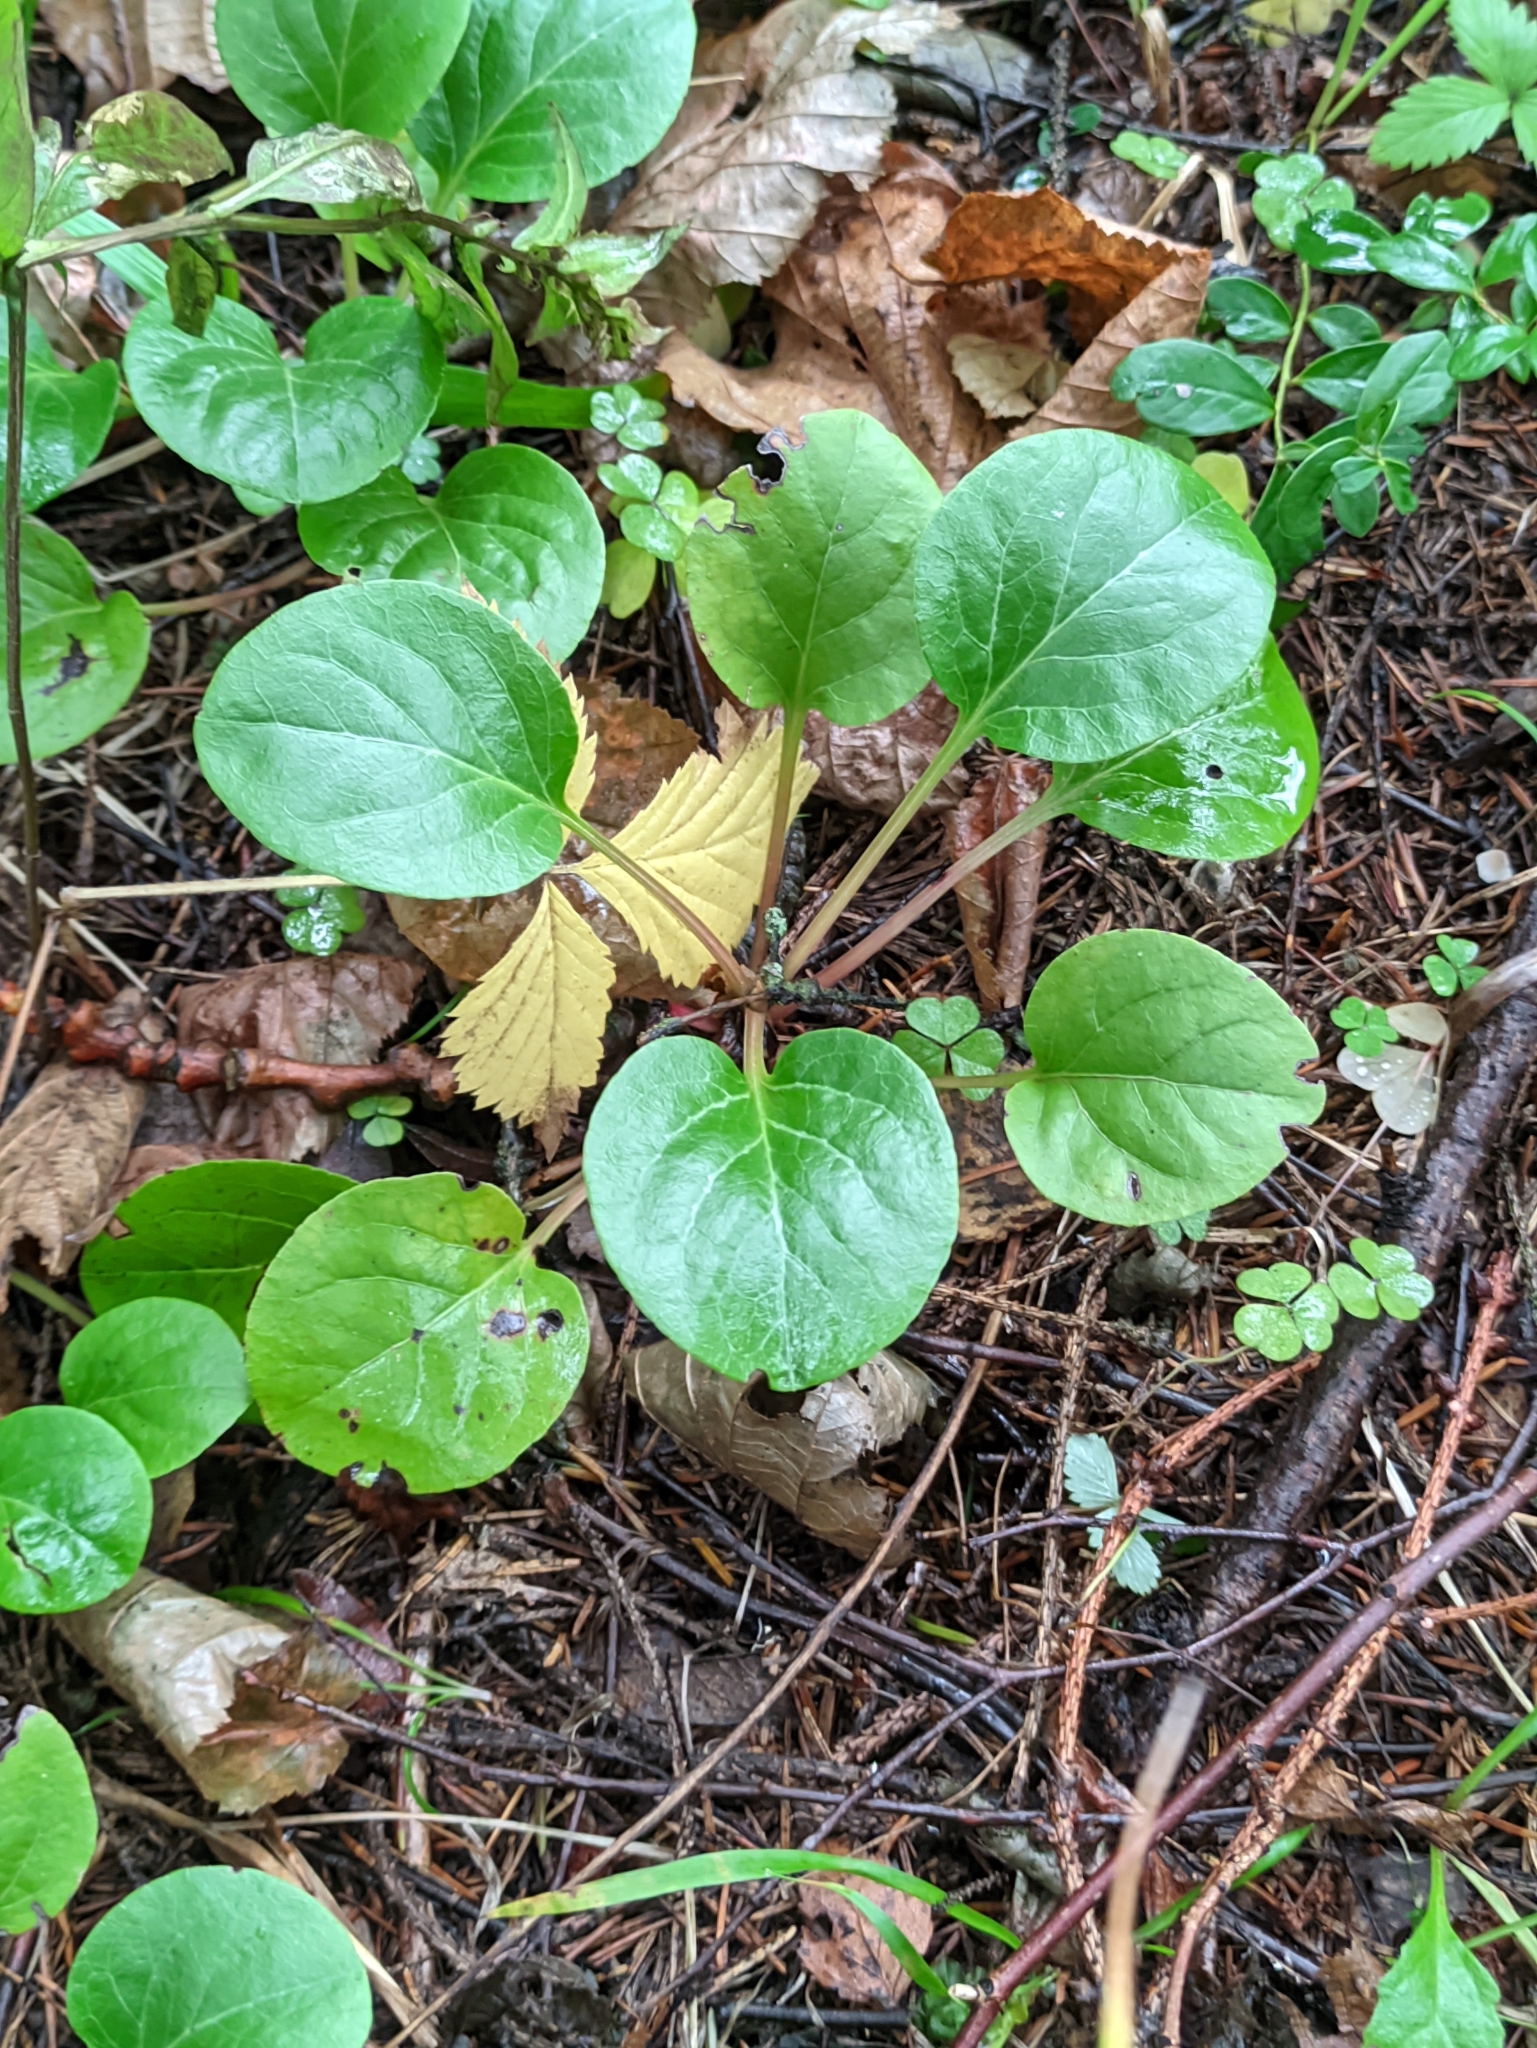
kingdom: Plantae
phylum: Tracheophyta
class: Magnoliopsida
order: Ericales
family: Ericaceae
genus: Pyrola
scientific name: Pyrola rotundifolia
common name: Round-leaved wintergreen
